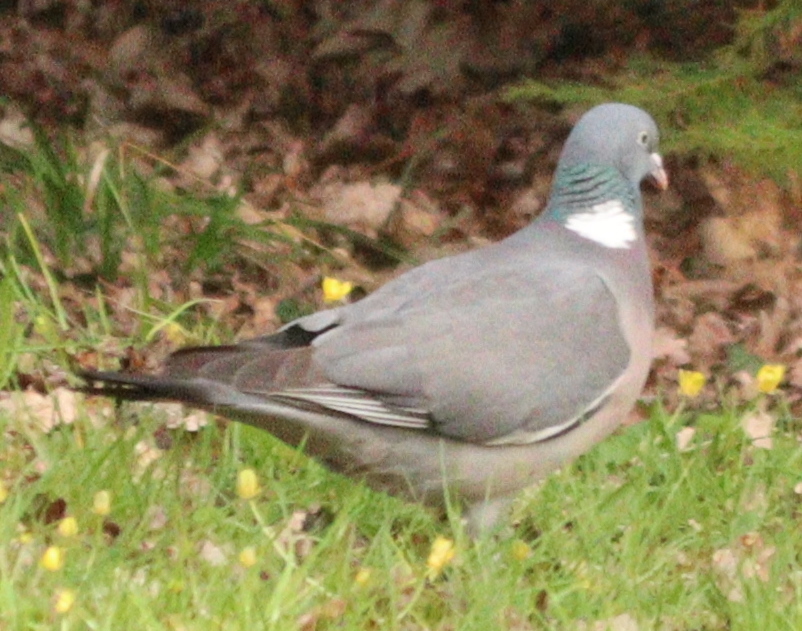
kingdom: Animalia
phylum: Chordata
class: Aves
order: Columbiformes
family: Columbidae
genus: Columba
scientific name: Columba palumbus
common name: Common wood pigeon
